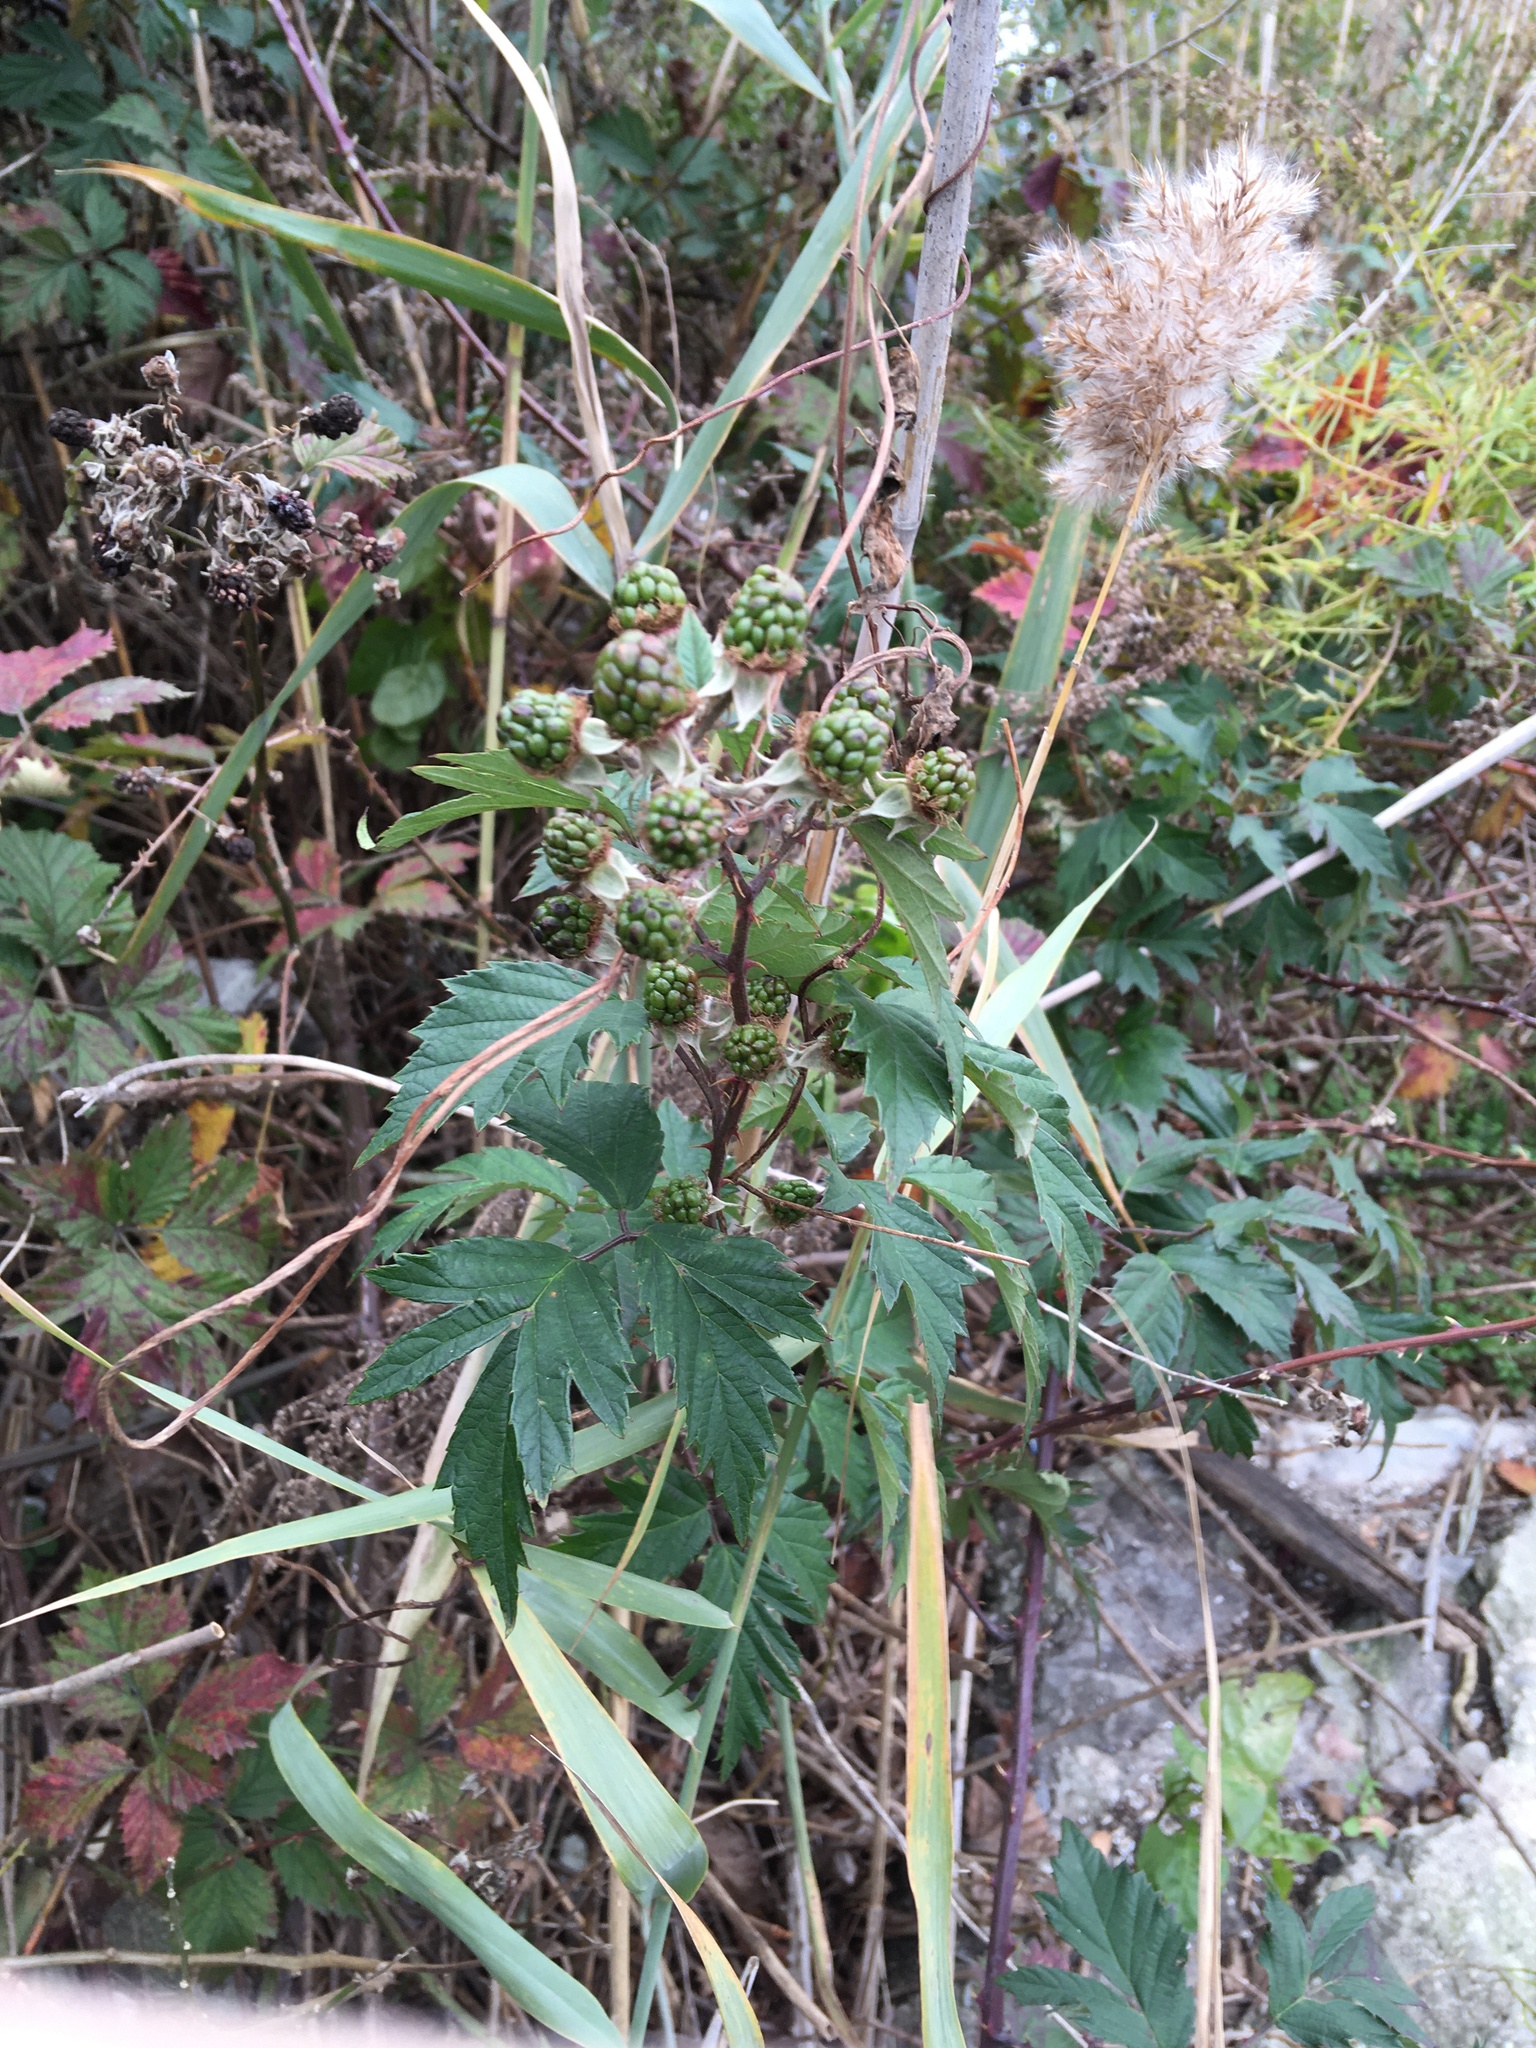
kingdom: Plantae
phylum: Tracheophyta
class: Magnoliopsida
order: Rosales
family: Rosaceae
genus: Rubus
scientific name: Rubus laciniatus
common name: Evergreen blackberry
